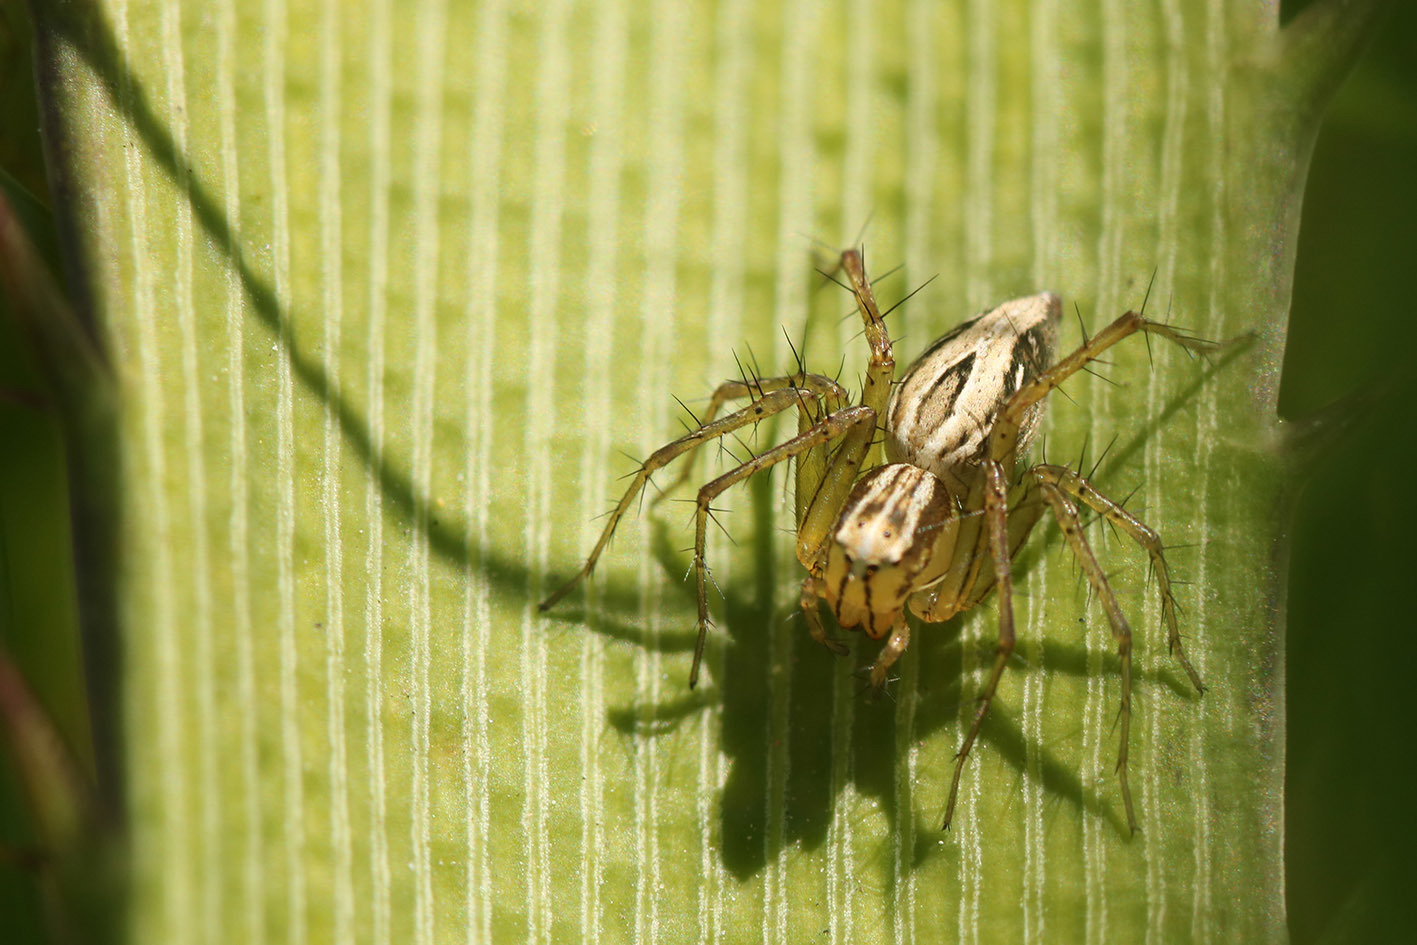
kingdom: Animalia
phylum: Arthropoda
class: Arachnida
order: Araneae
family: Oxyopidae
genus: Oxyopes
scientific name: Oxyopes salticus
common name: Lynx spiders
